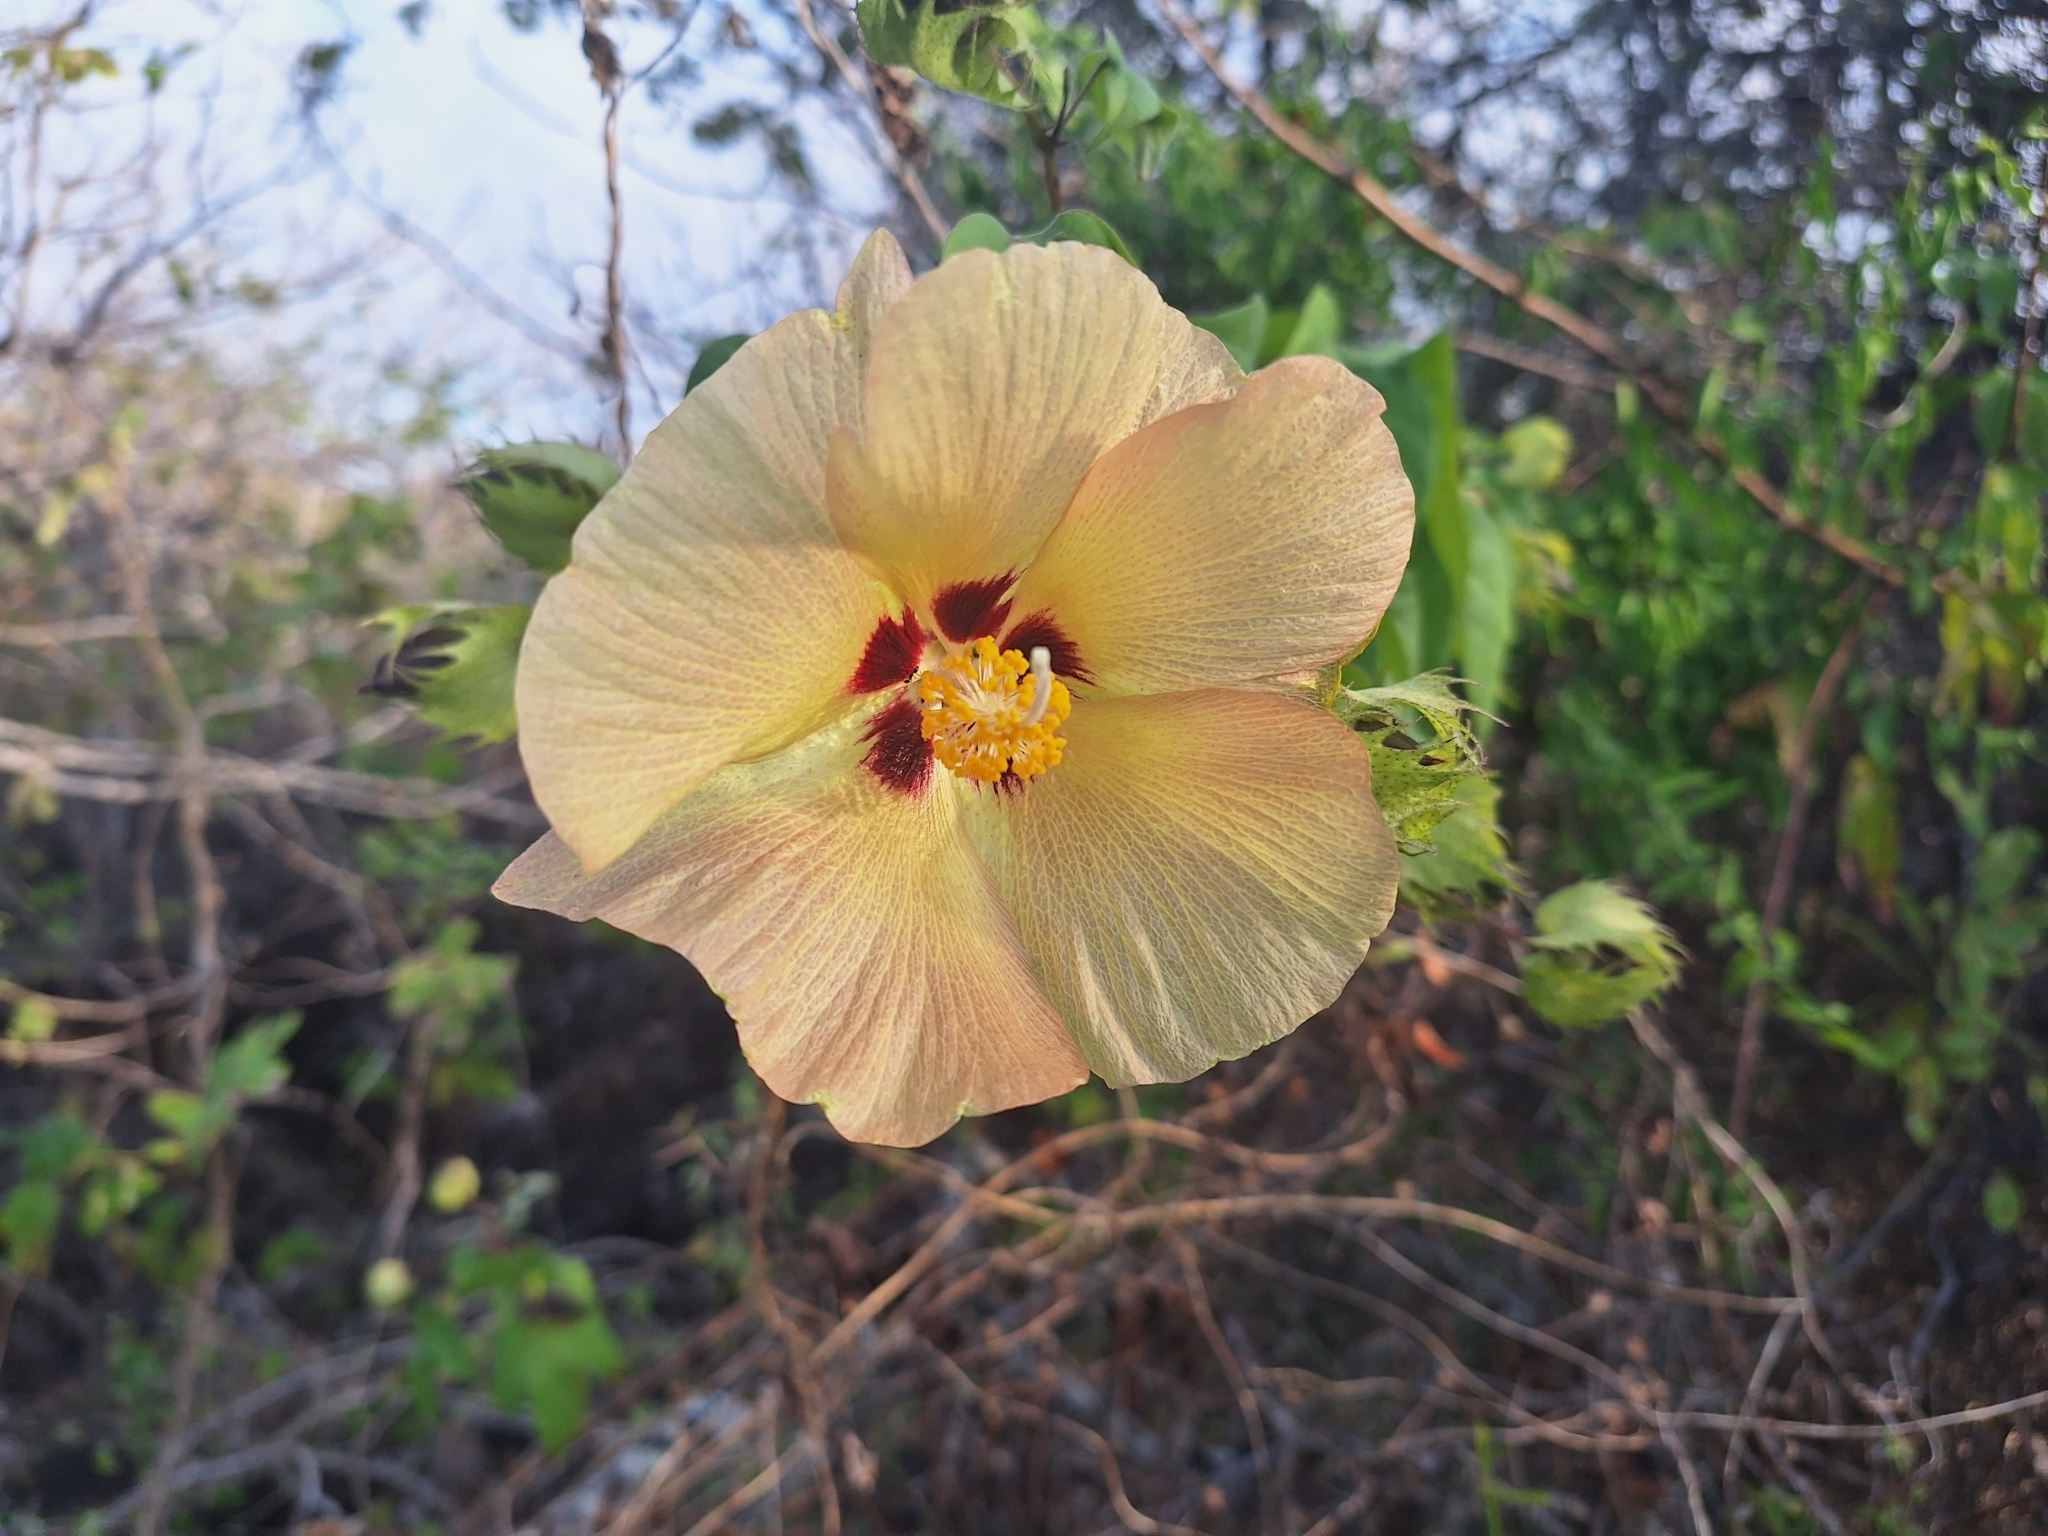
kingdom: Plantae
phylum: Tracheophyta
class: Magnoliopsida
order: Malvales
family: Malvaceae
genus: Gossypium
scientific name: Gossypium darwinii
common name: Darwin's cotton
